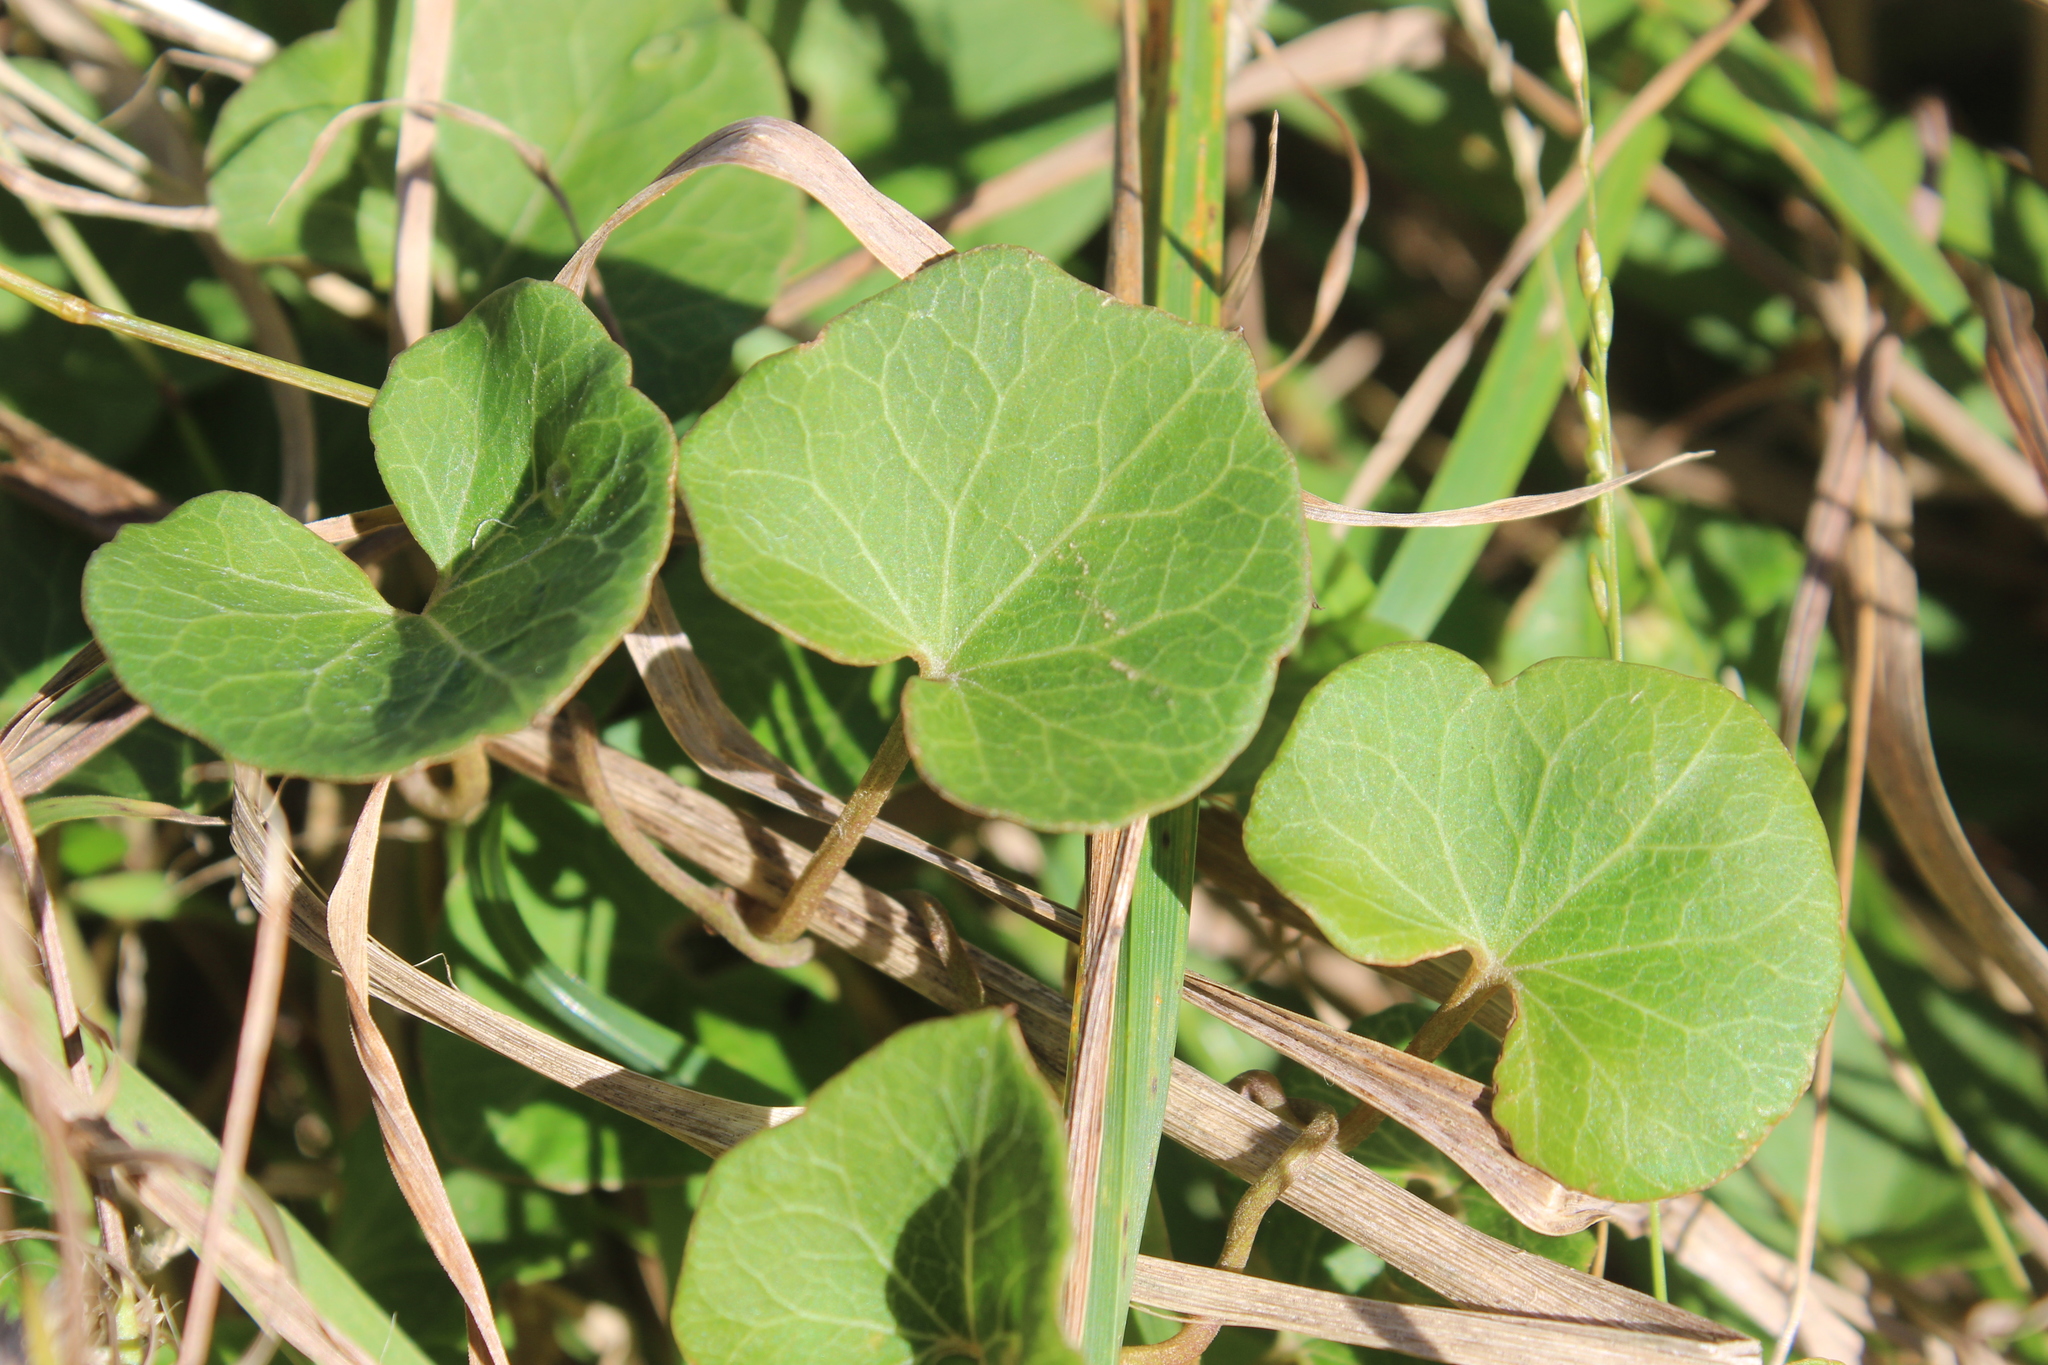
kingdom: Plantae
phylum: Tracheophyta
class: Magnoliopsida
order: Solanales
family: Convolvulaceae
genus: Calystegia
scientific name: Calystegia
